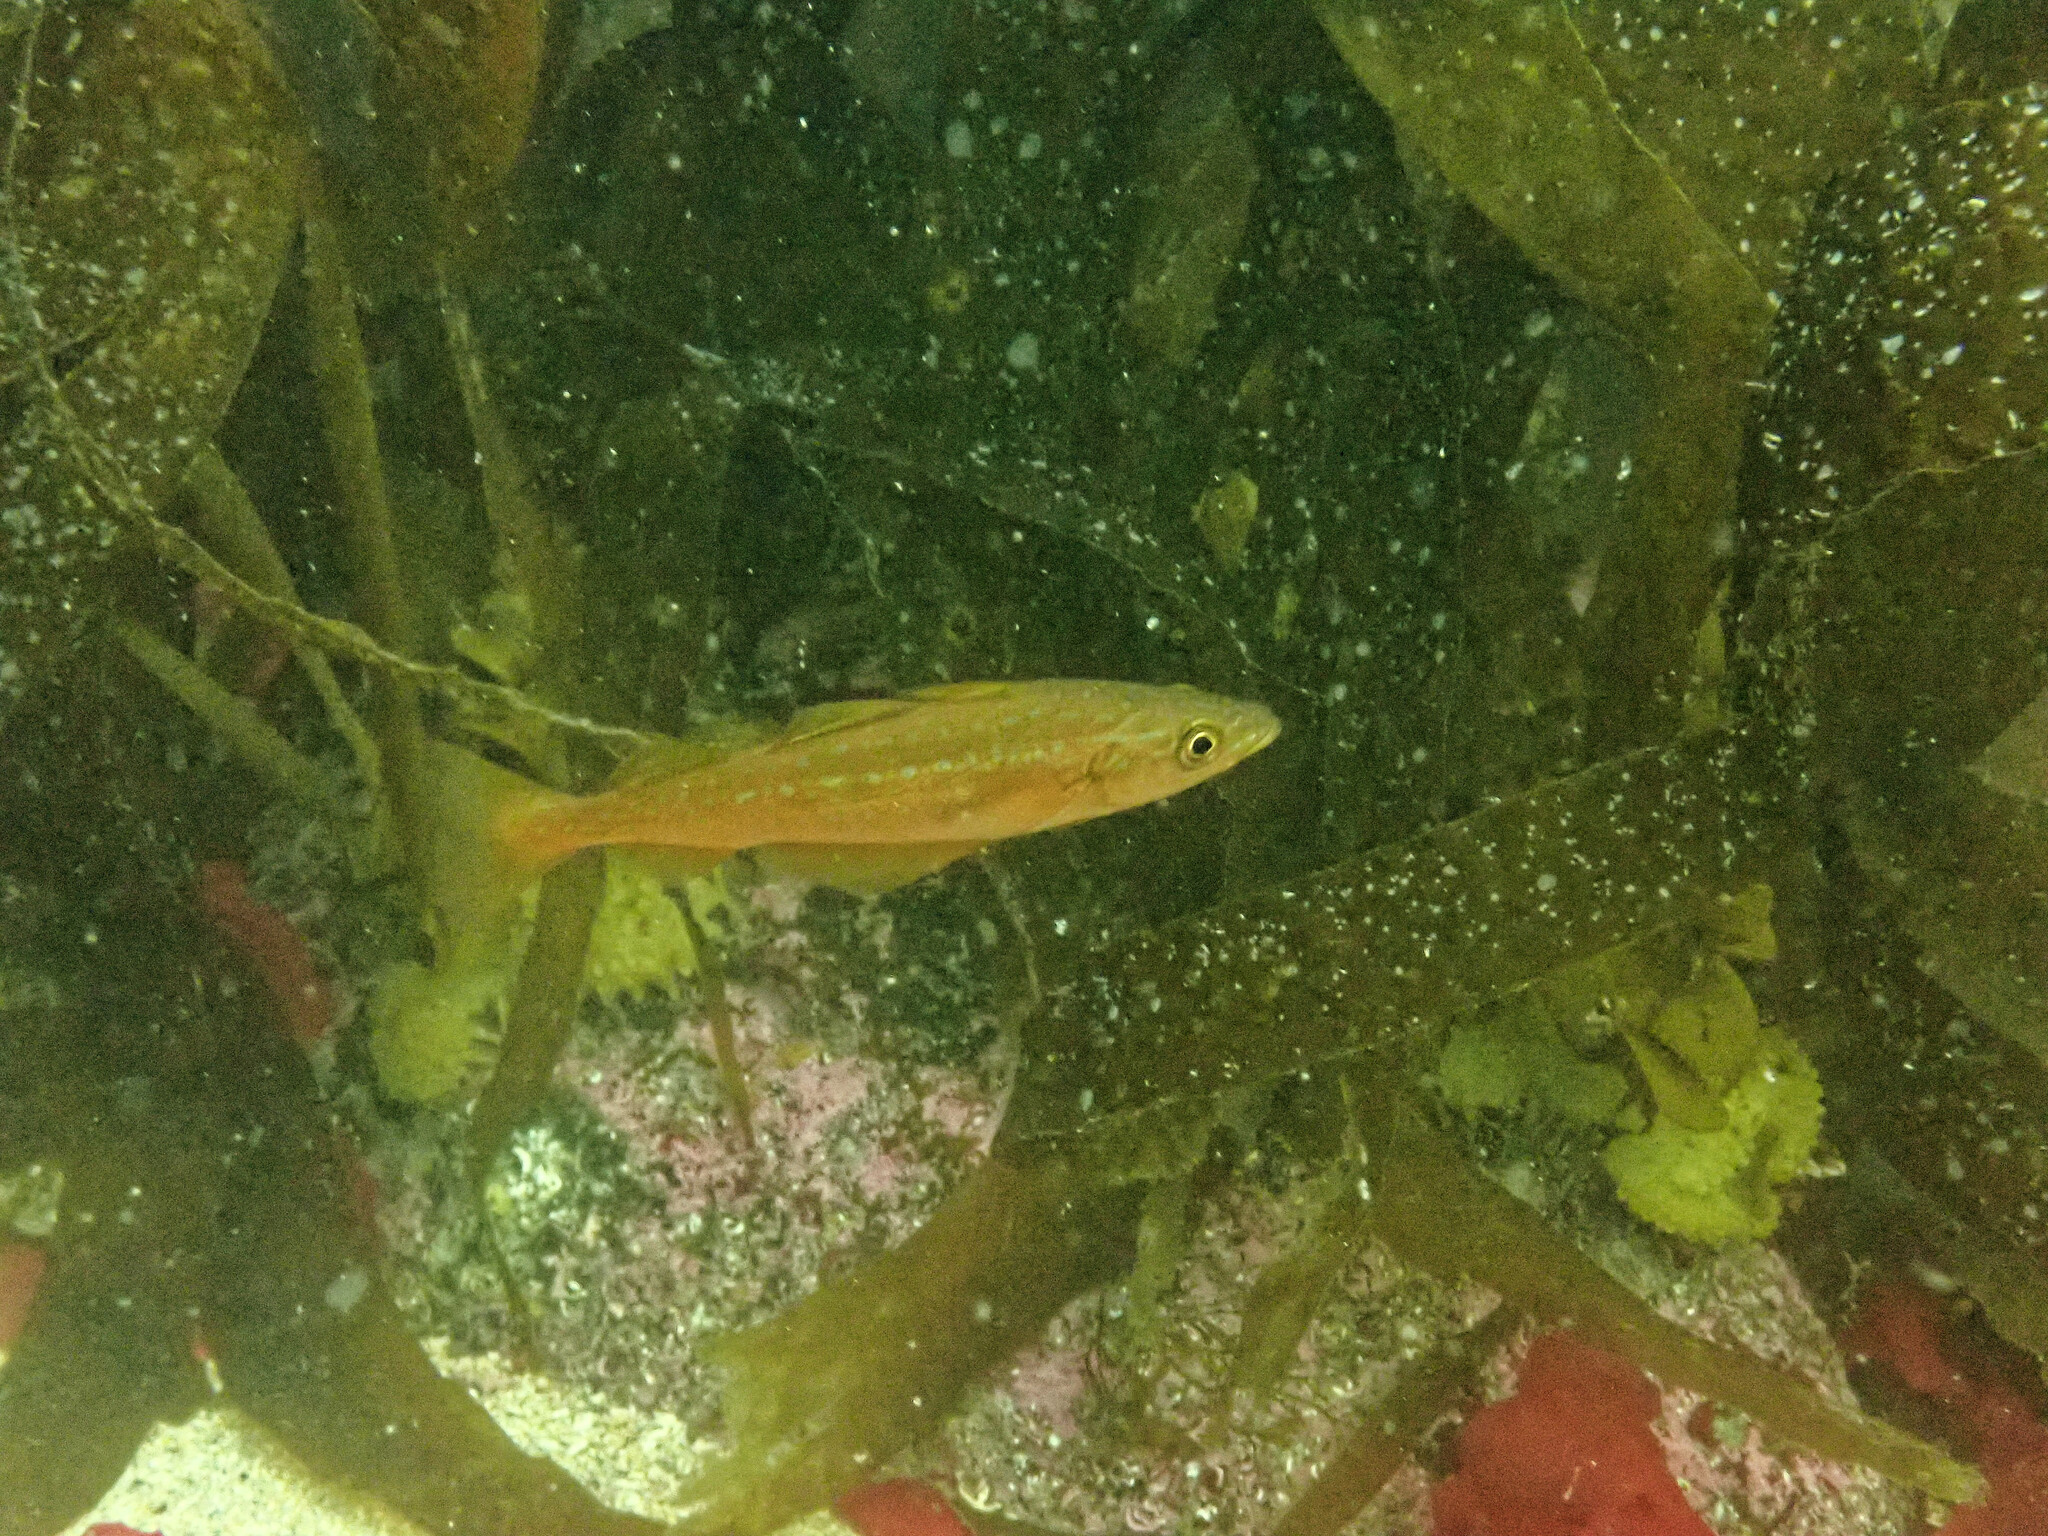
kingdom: Animalia
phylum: Chordata
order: Gadiformes
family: Gadidae
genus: Pollachius
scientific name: Pollachius pollachius
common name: Pollack
